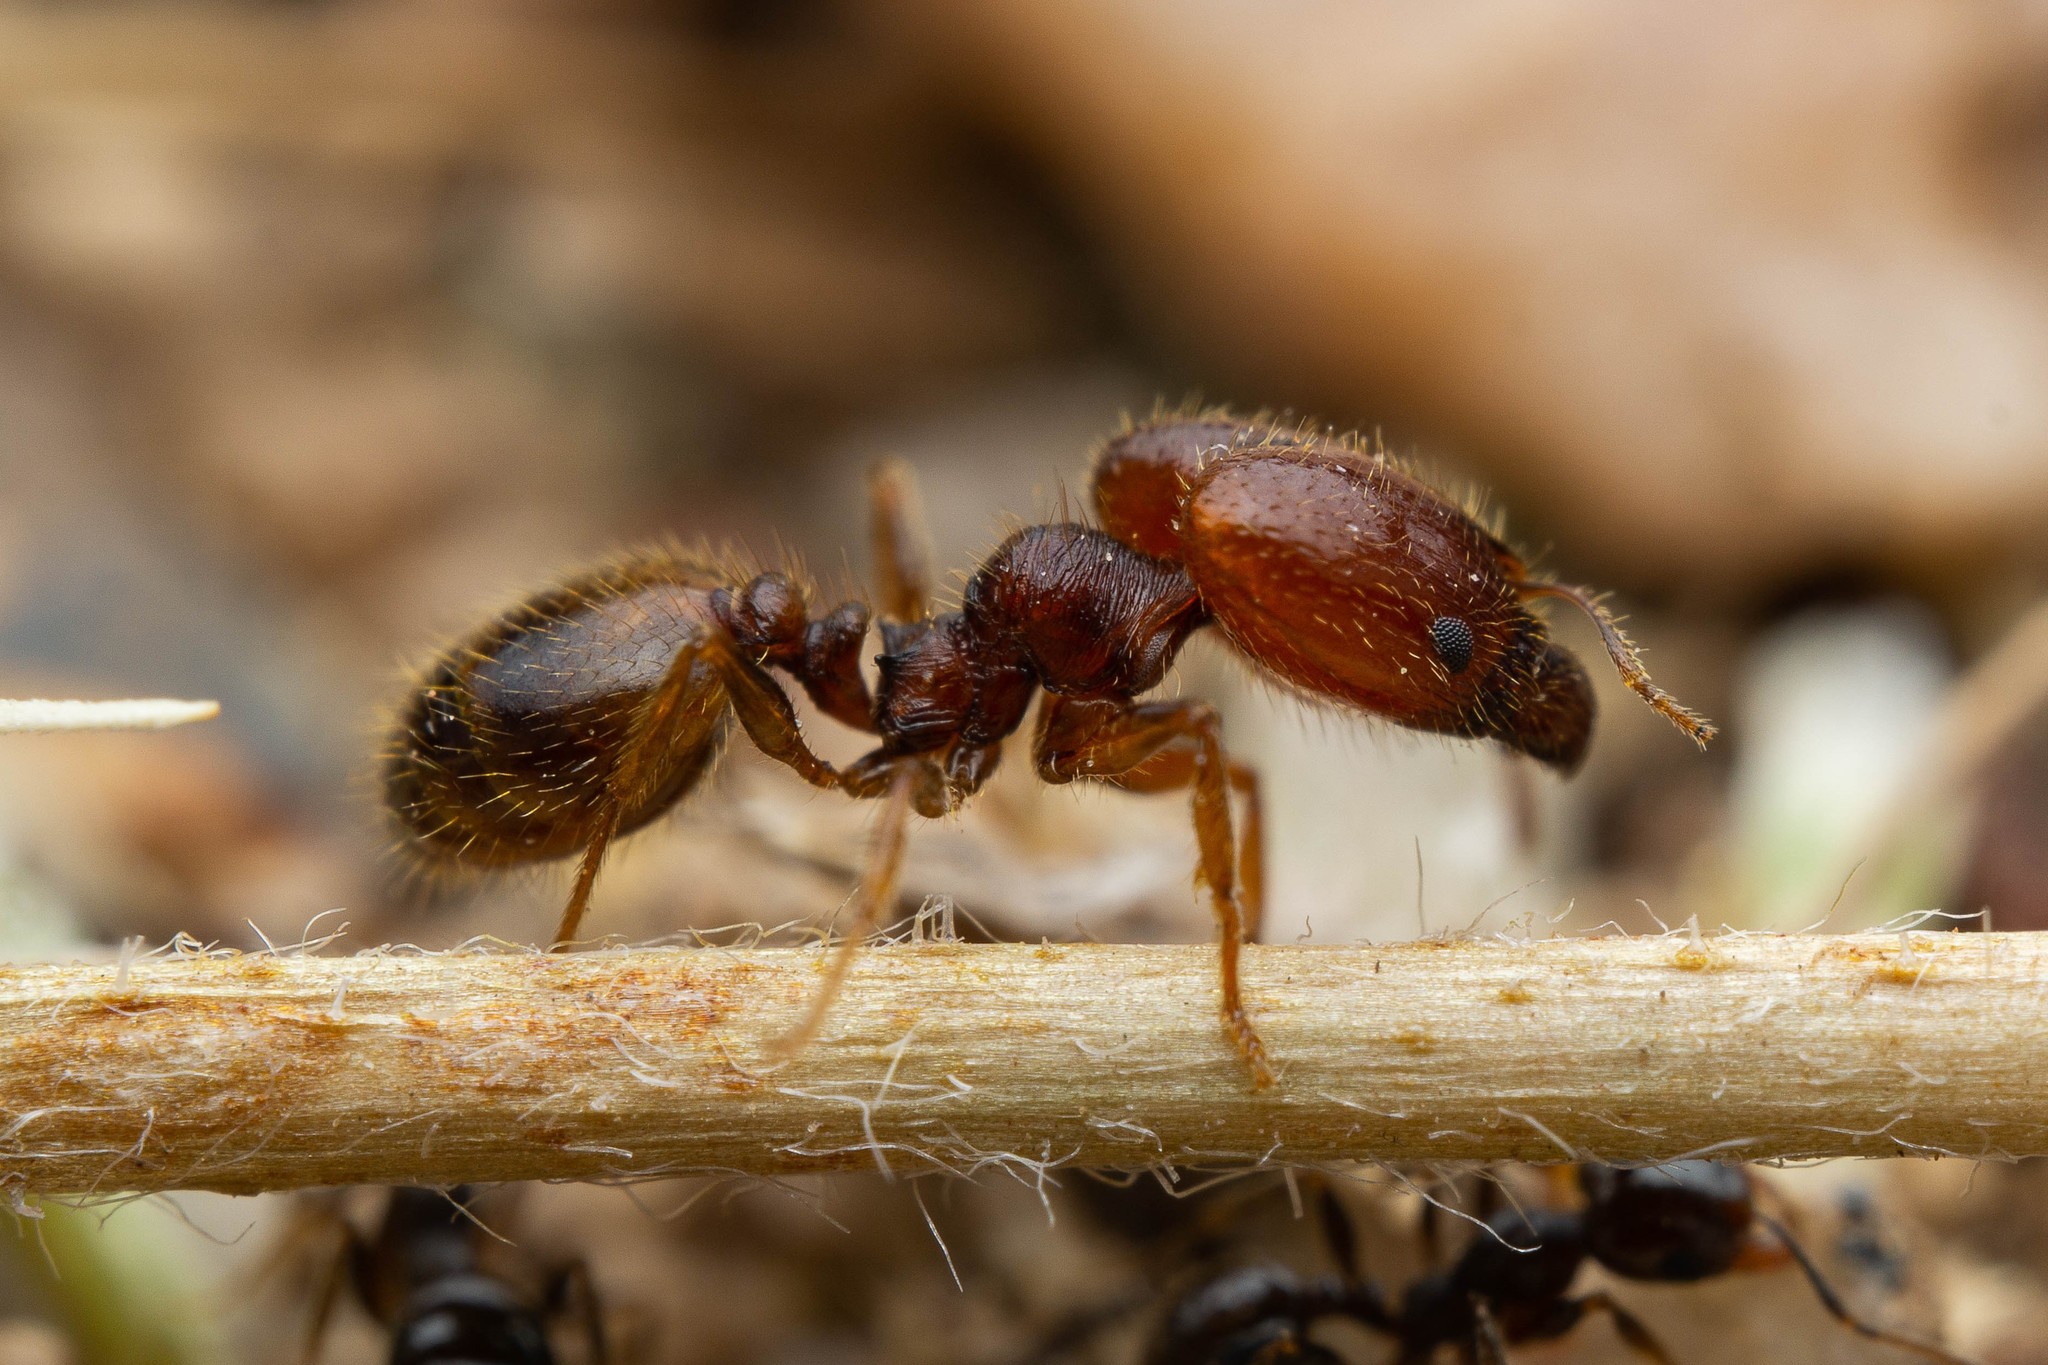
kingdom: Animalia
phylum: Arthropoda
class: Insecta
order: Hymenoptera
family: Formicidae
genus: Pheidole
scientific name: Pheidole xerophila
